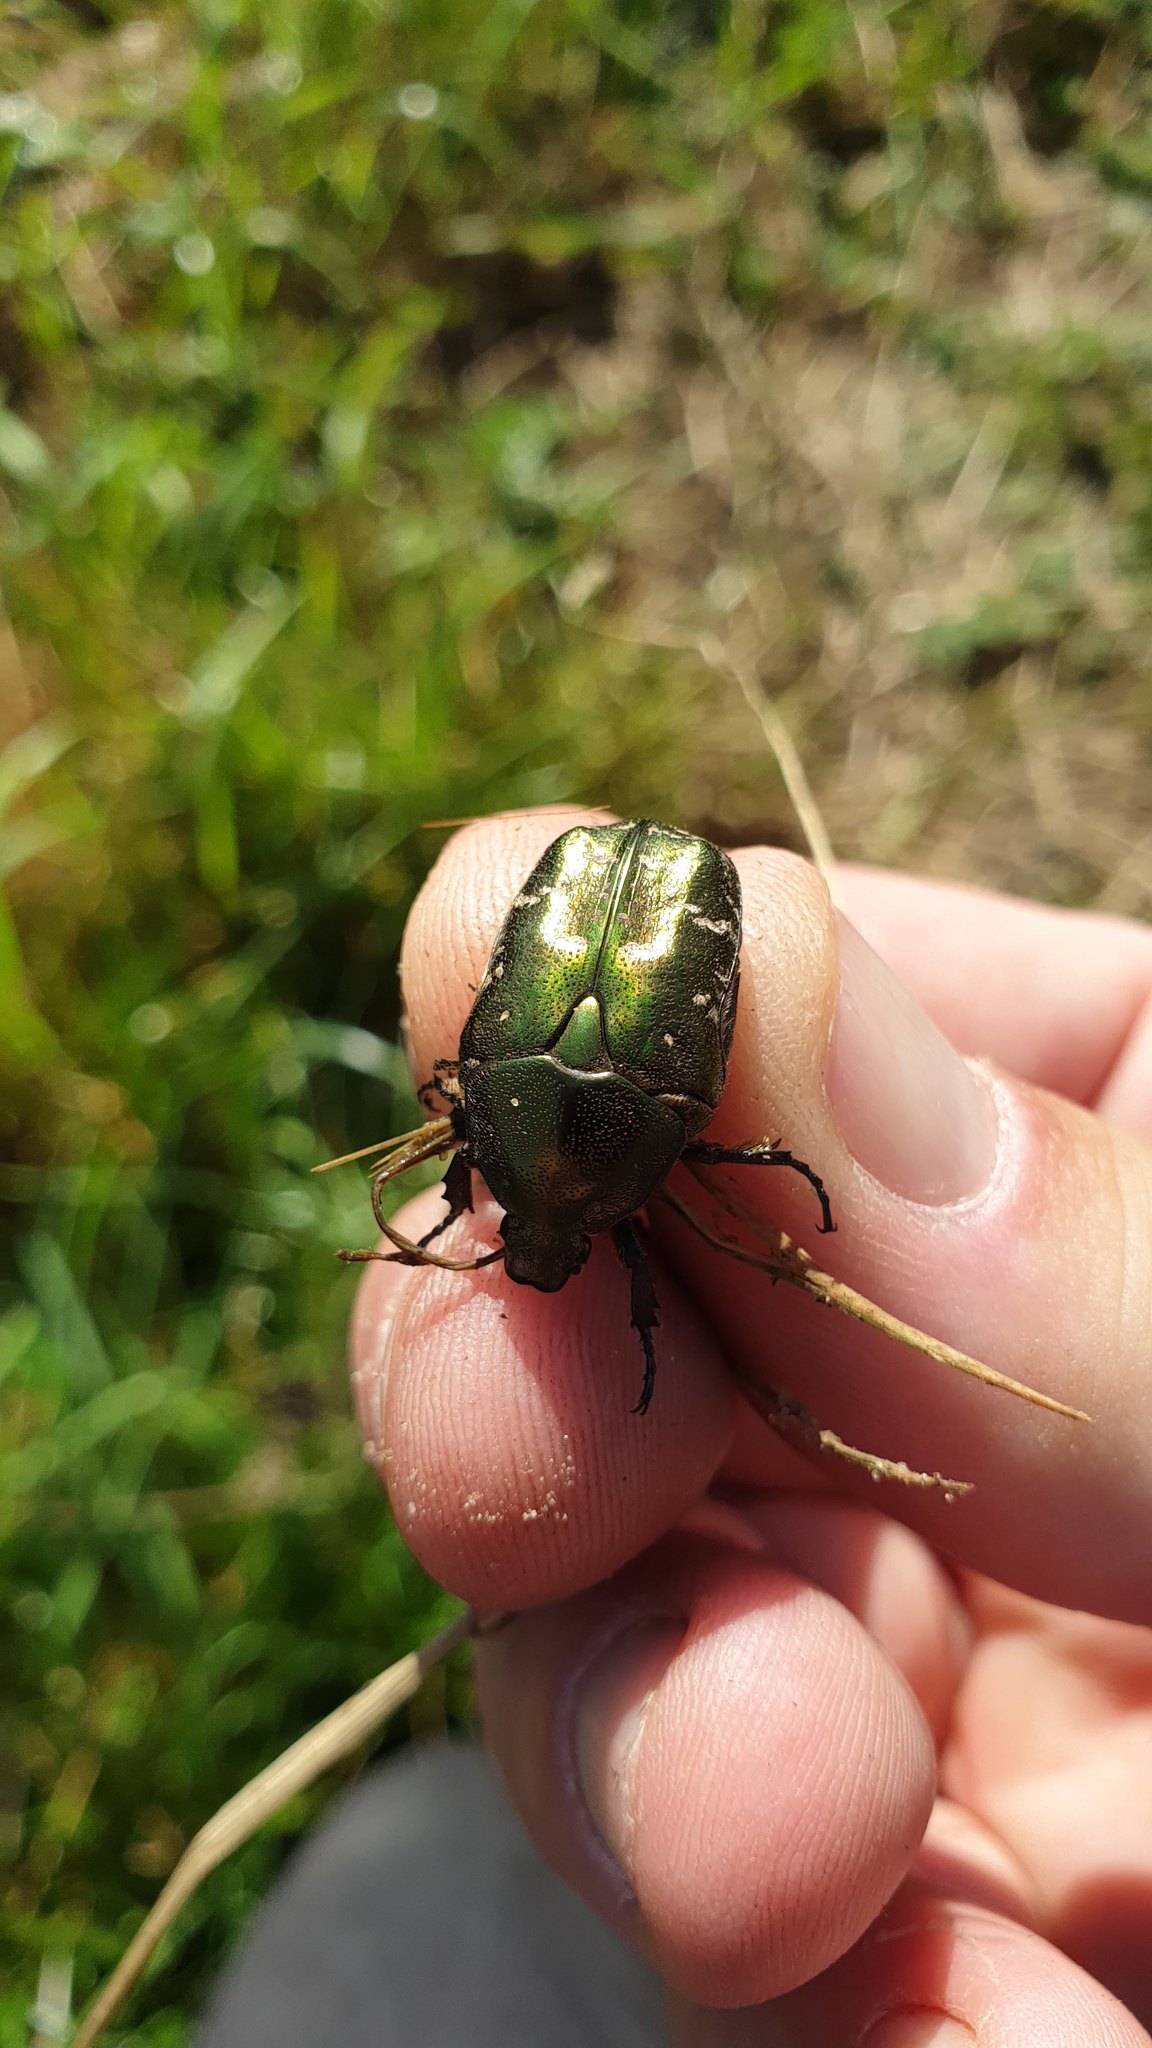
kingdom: Animalia
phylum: Arthropoda
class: Insecta
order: Coleoptera
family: Scarabaeidae
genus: Protaetia
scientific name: Protaetia cuprea
